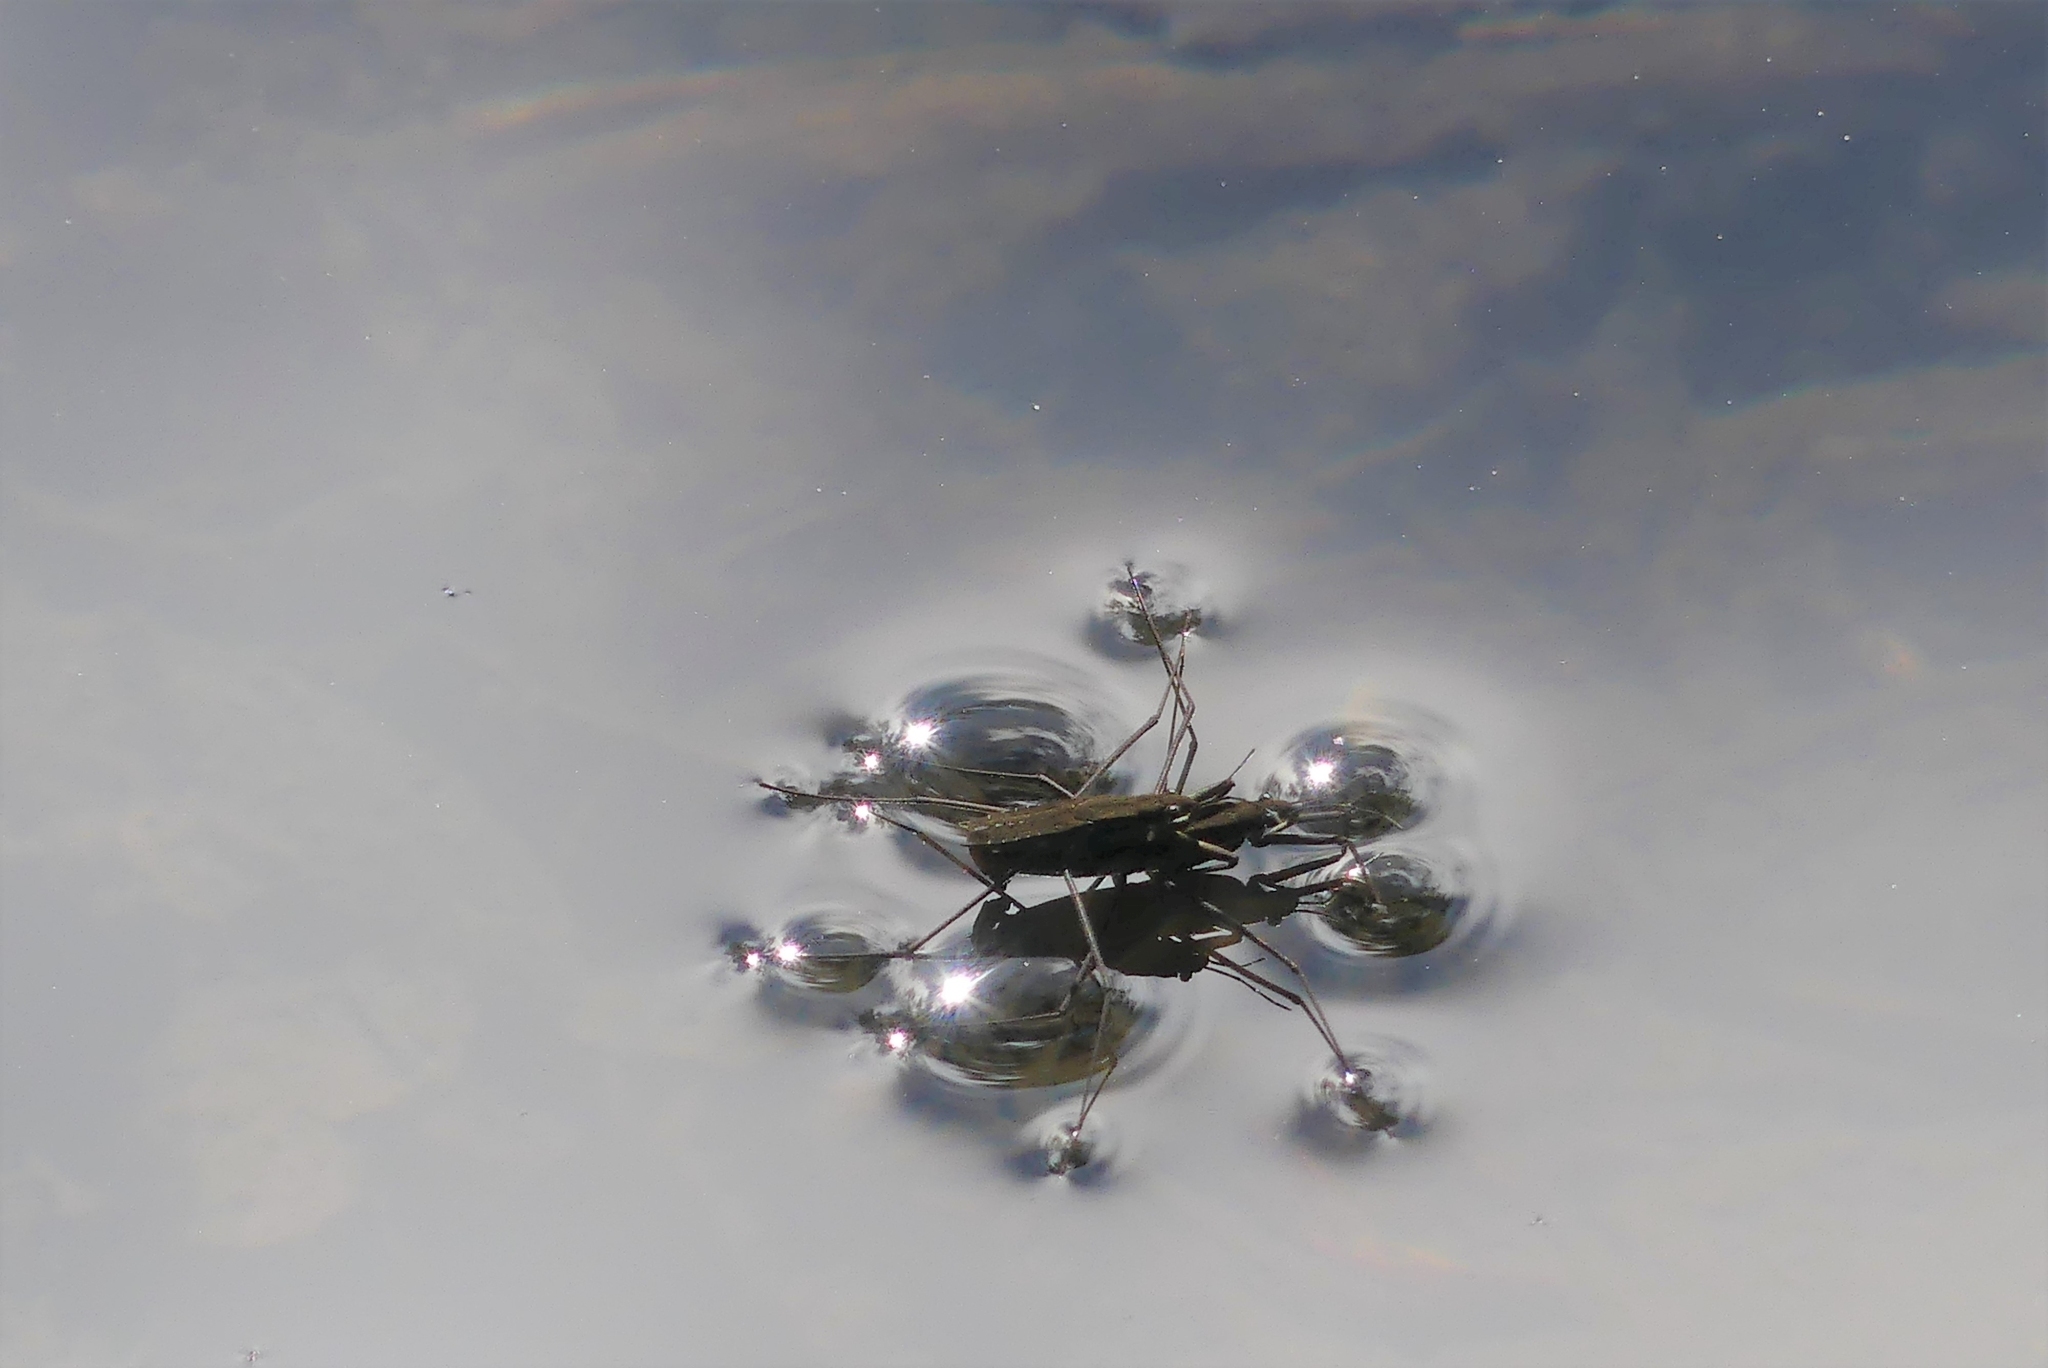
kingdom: Animalia
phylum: Arthropoda
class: Insecta
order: Hemiptera
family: Gerridae
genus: Aquarius
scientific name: Aquarius remigis
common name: Common water strider
